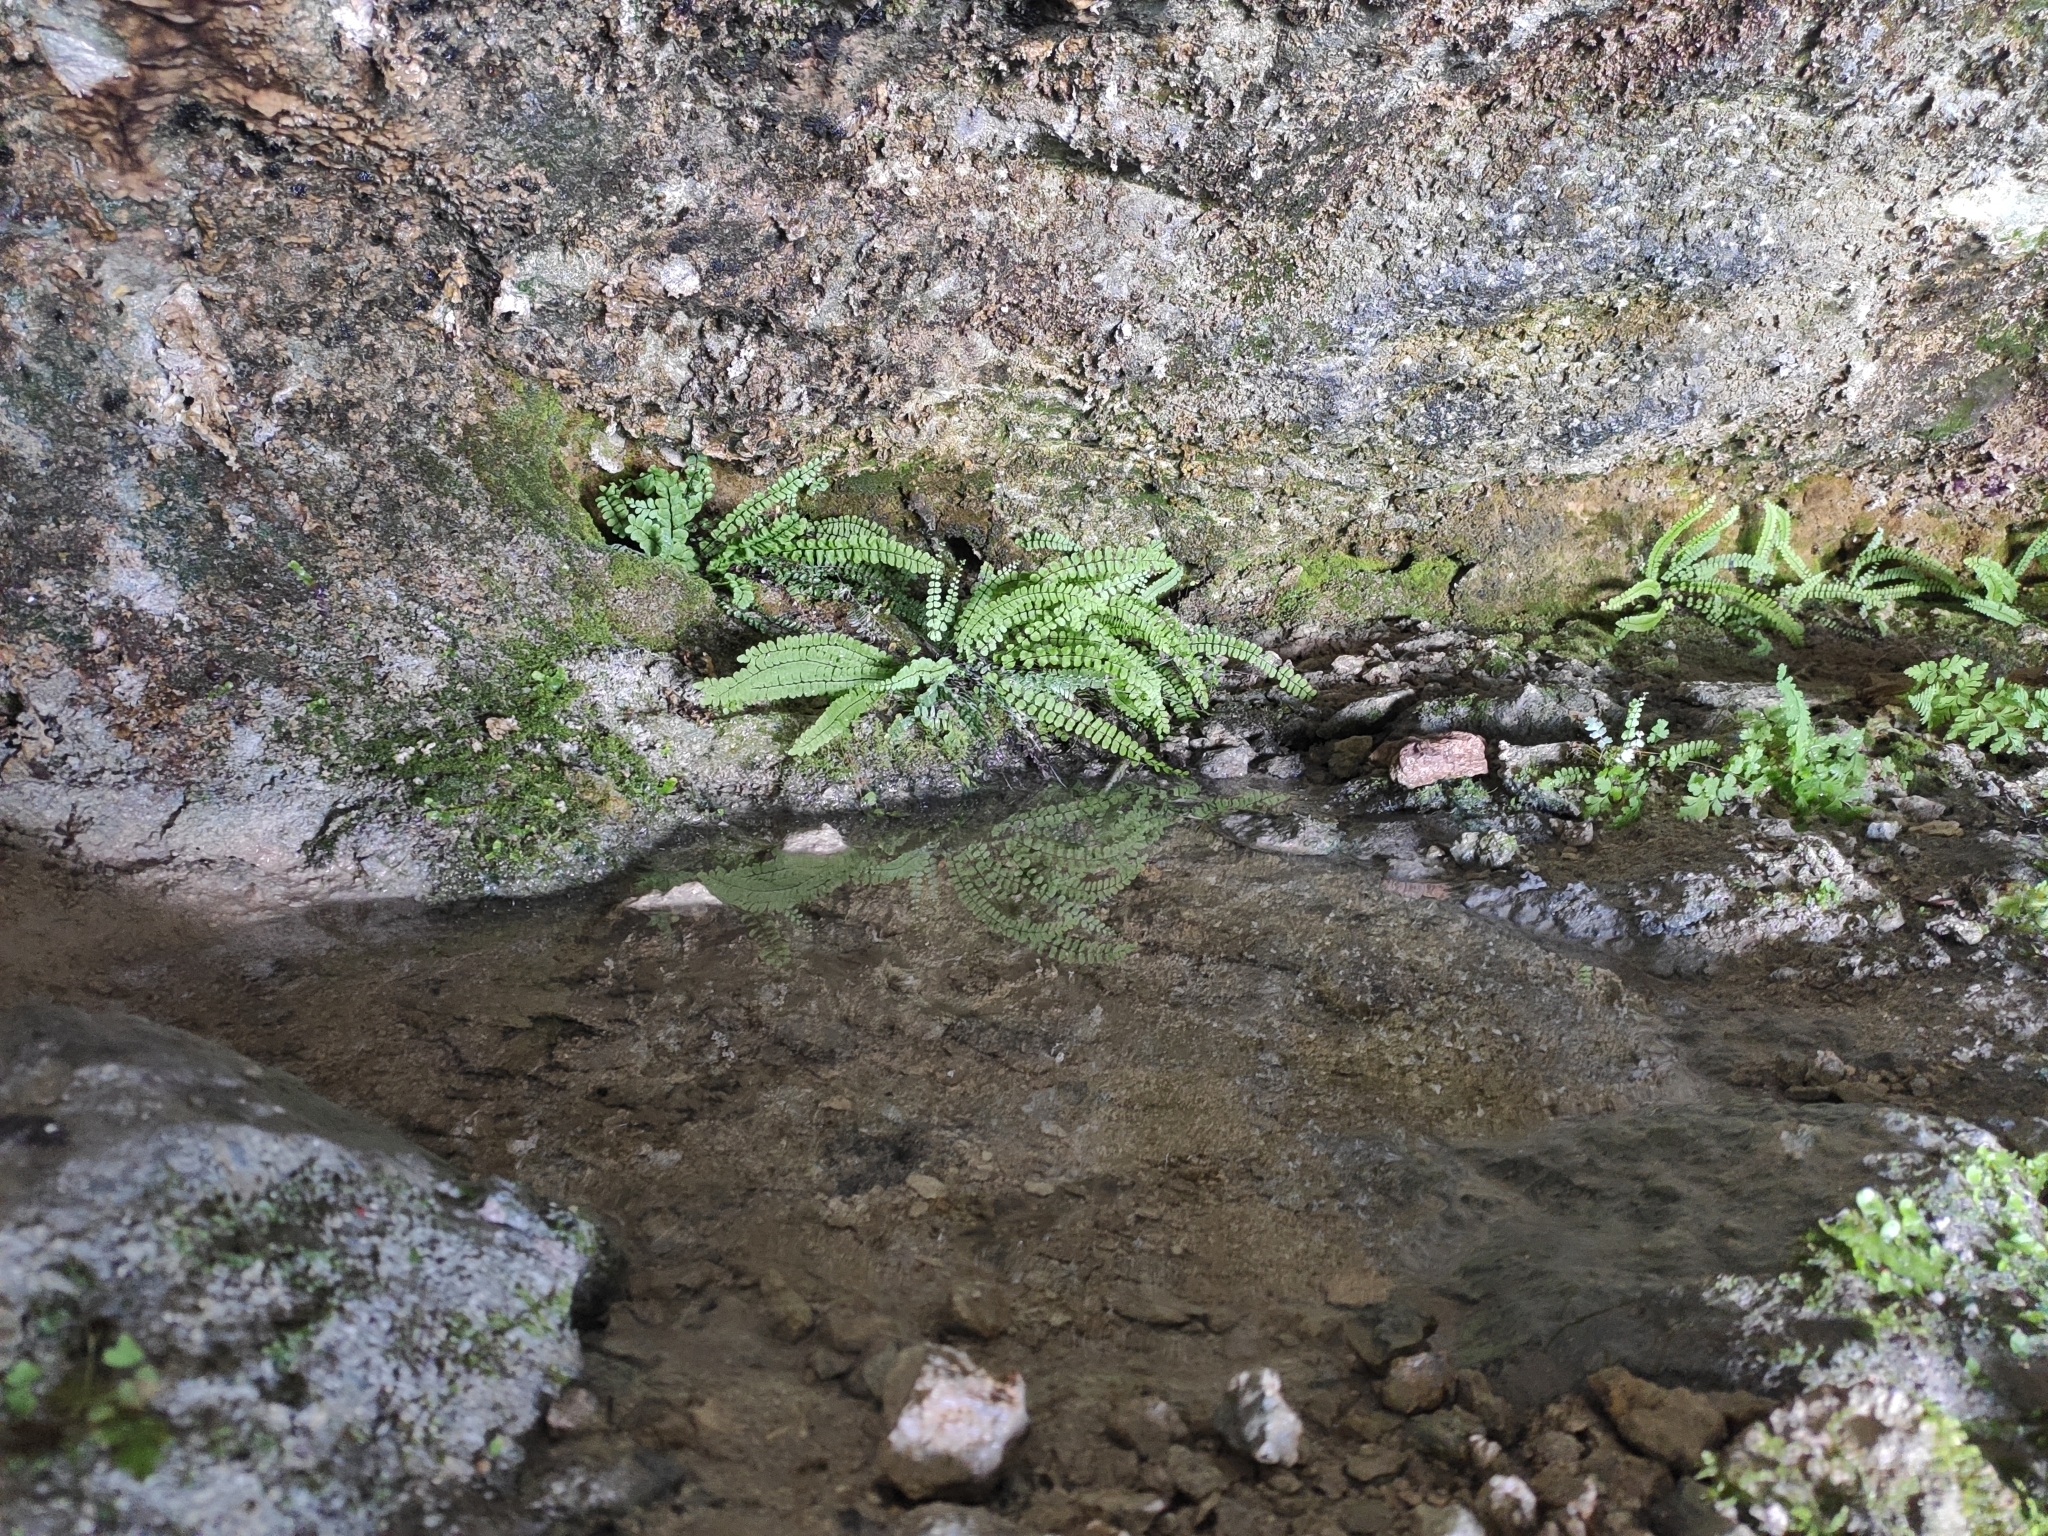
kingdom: Plantae
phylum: Tracheophyta
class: Polypodiopsida
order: Polypodiales
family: Aspleniaceae
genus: Asplenium
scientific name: Asplenium trichomanes
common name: Maidenhair spleenwort
